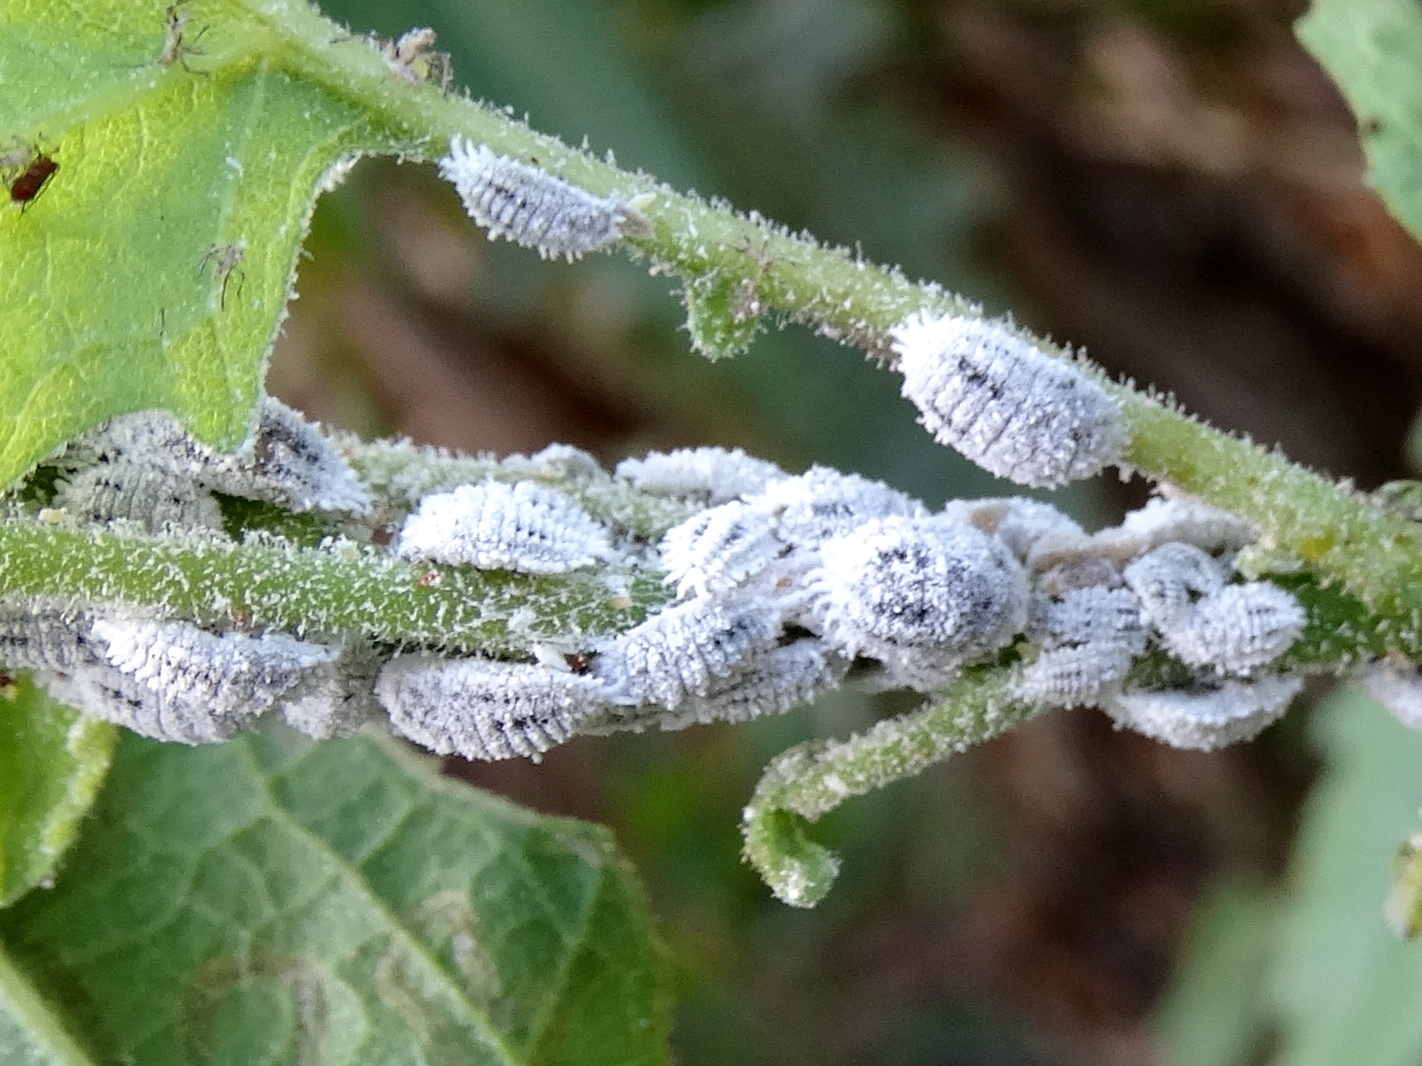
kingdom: Animalia
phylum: Arthropoda
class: Insecta
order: Hemiptera
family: Pseudococcidae
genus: Phenacoccus
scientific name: Phenacoccus
